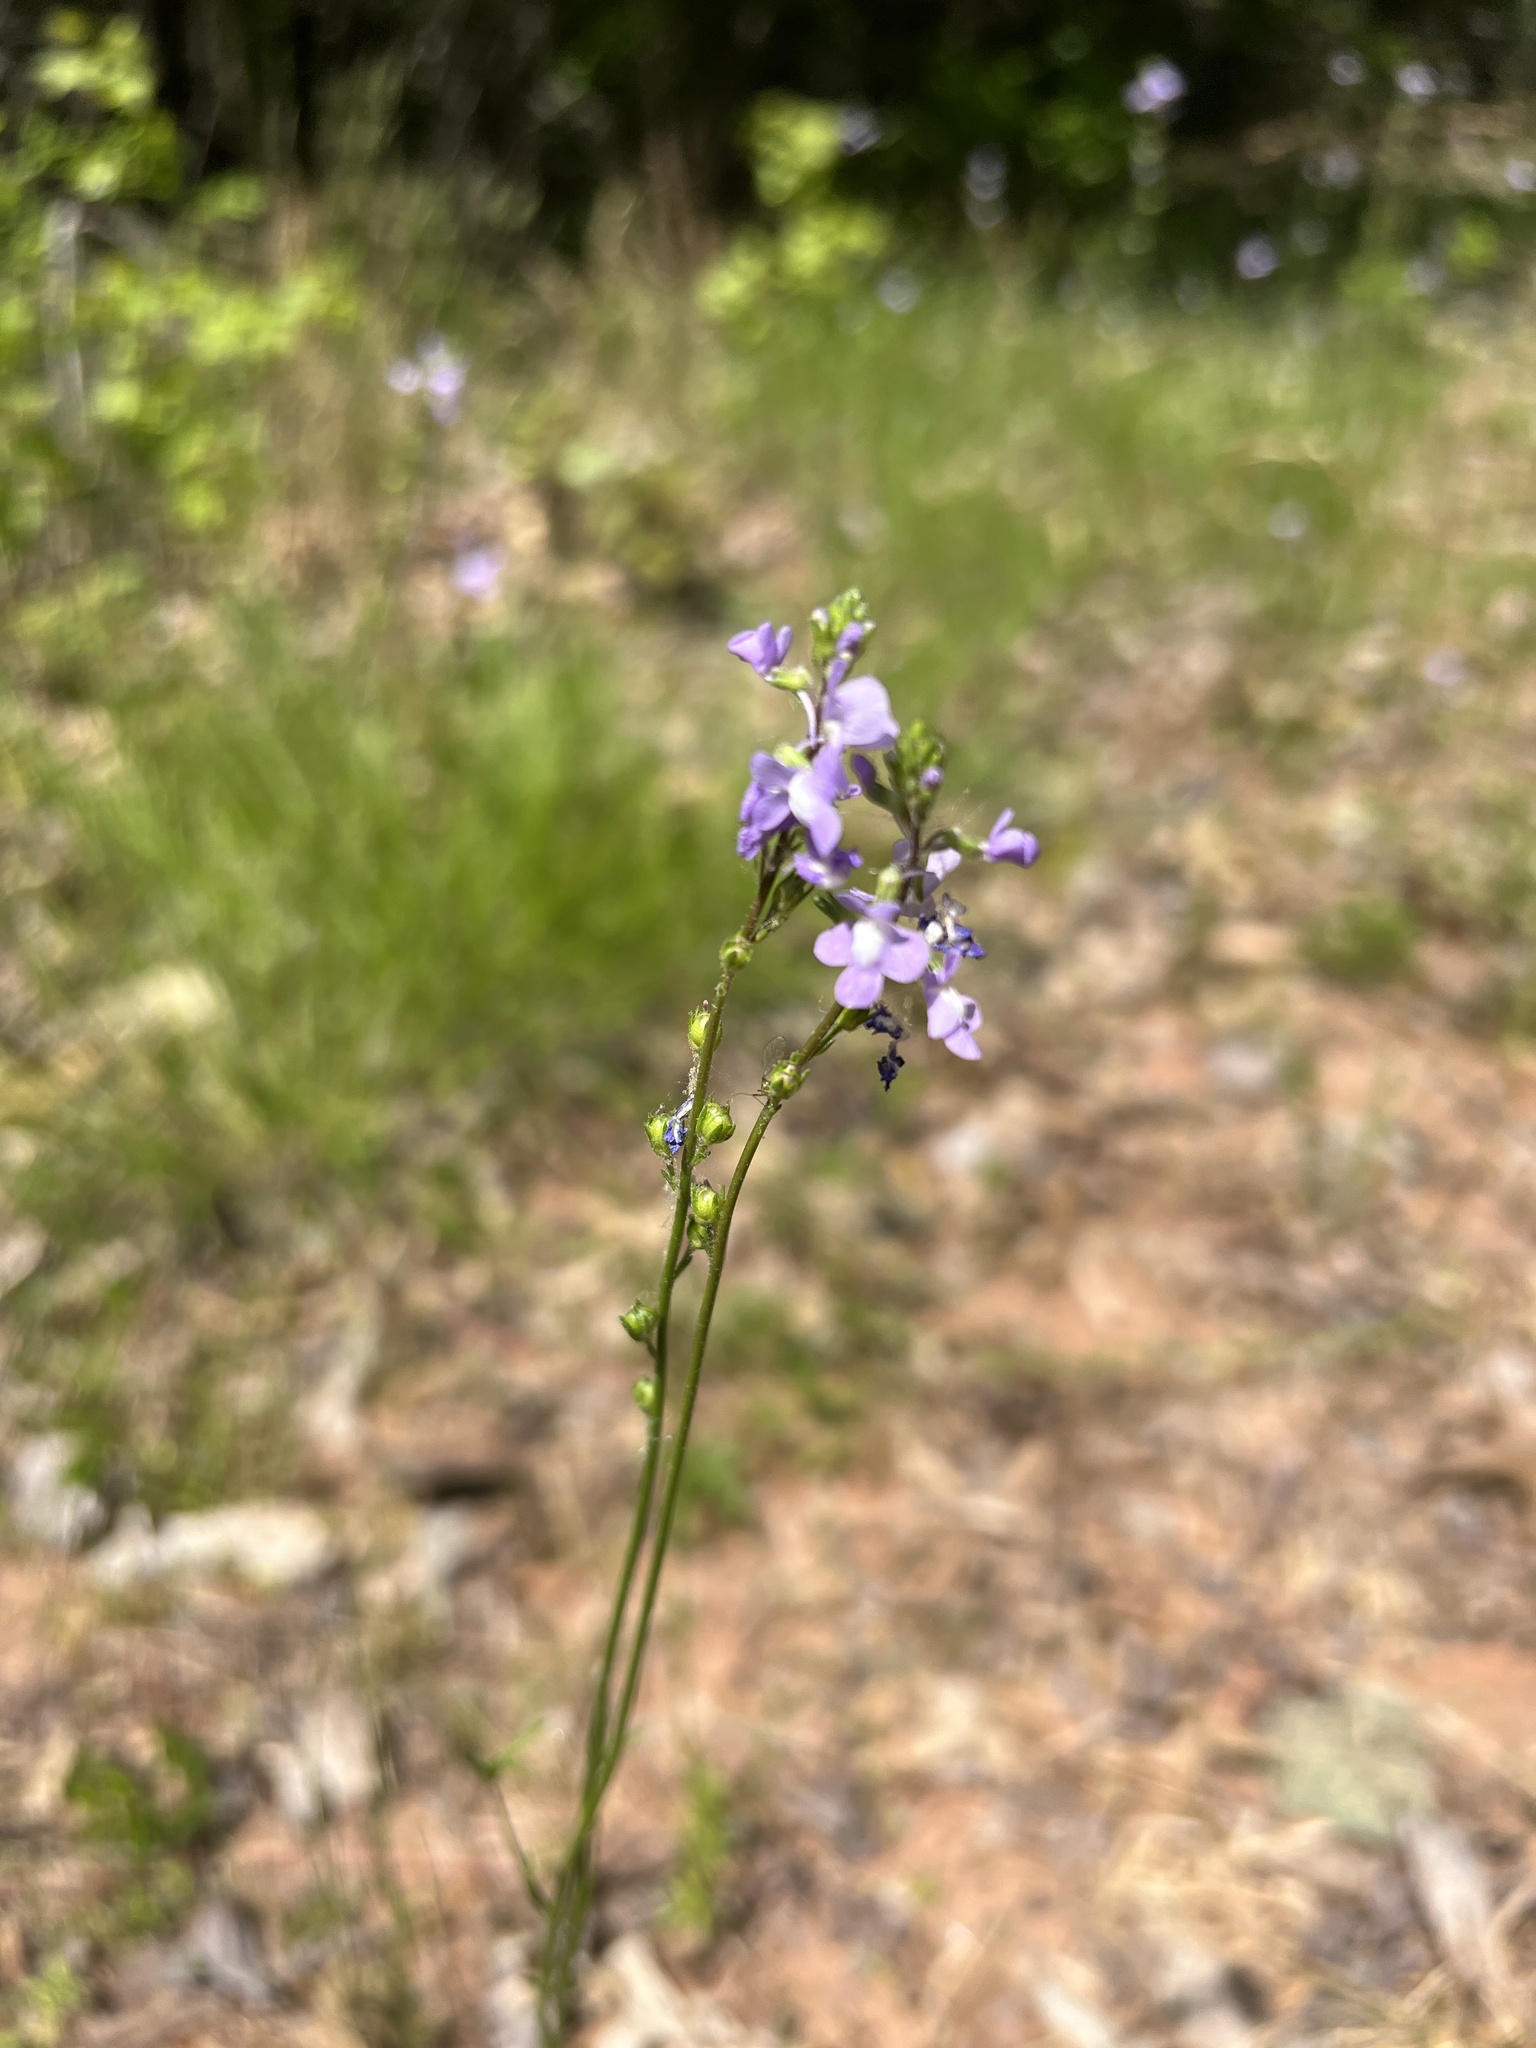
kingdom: Plantae
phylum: Tracheophyta
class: Magnoliopsida
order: Lamiales
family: Plantaginaceae
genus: Nuttallanthus
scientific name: Nuttallanthus canadensis
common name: Blue toadflax
